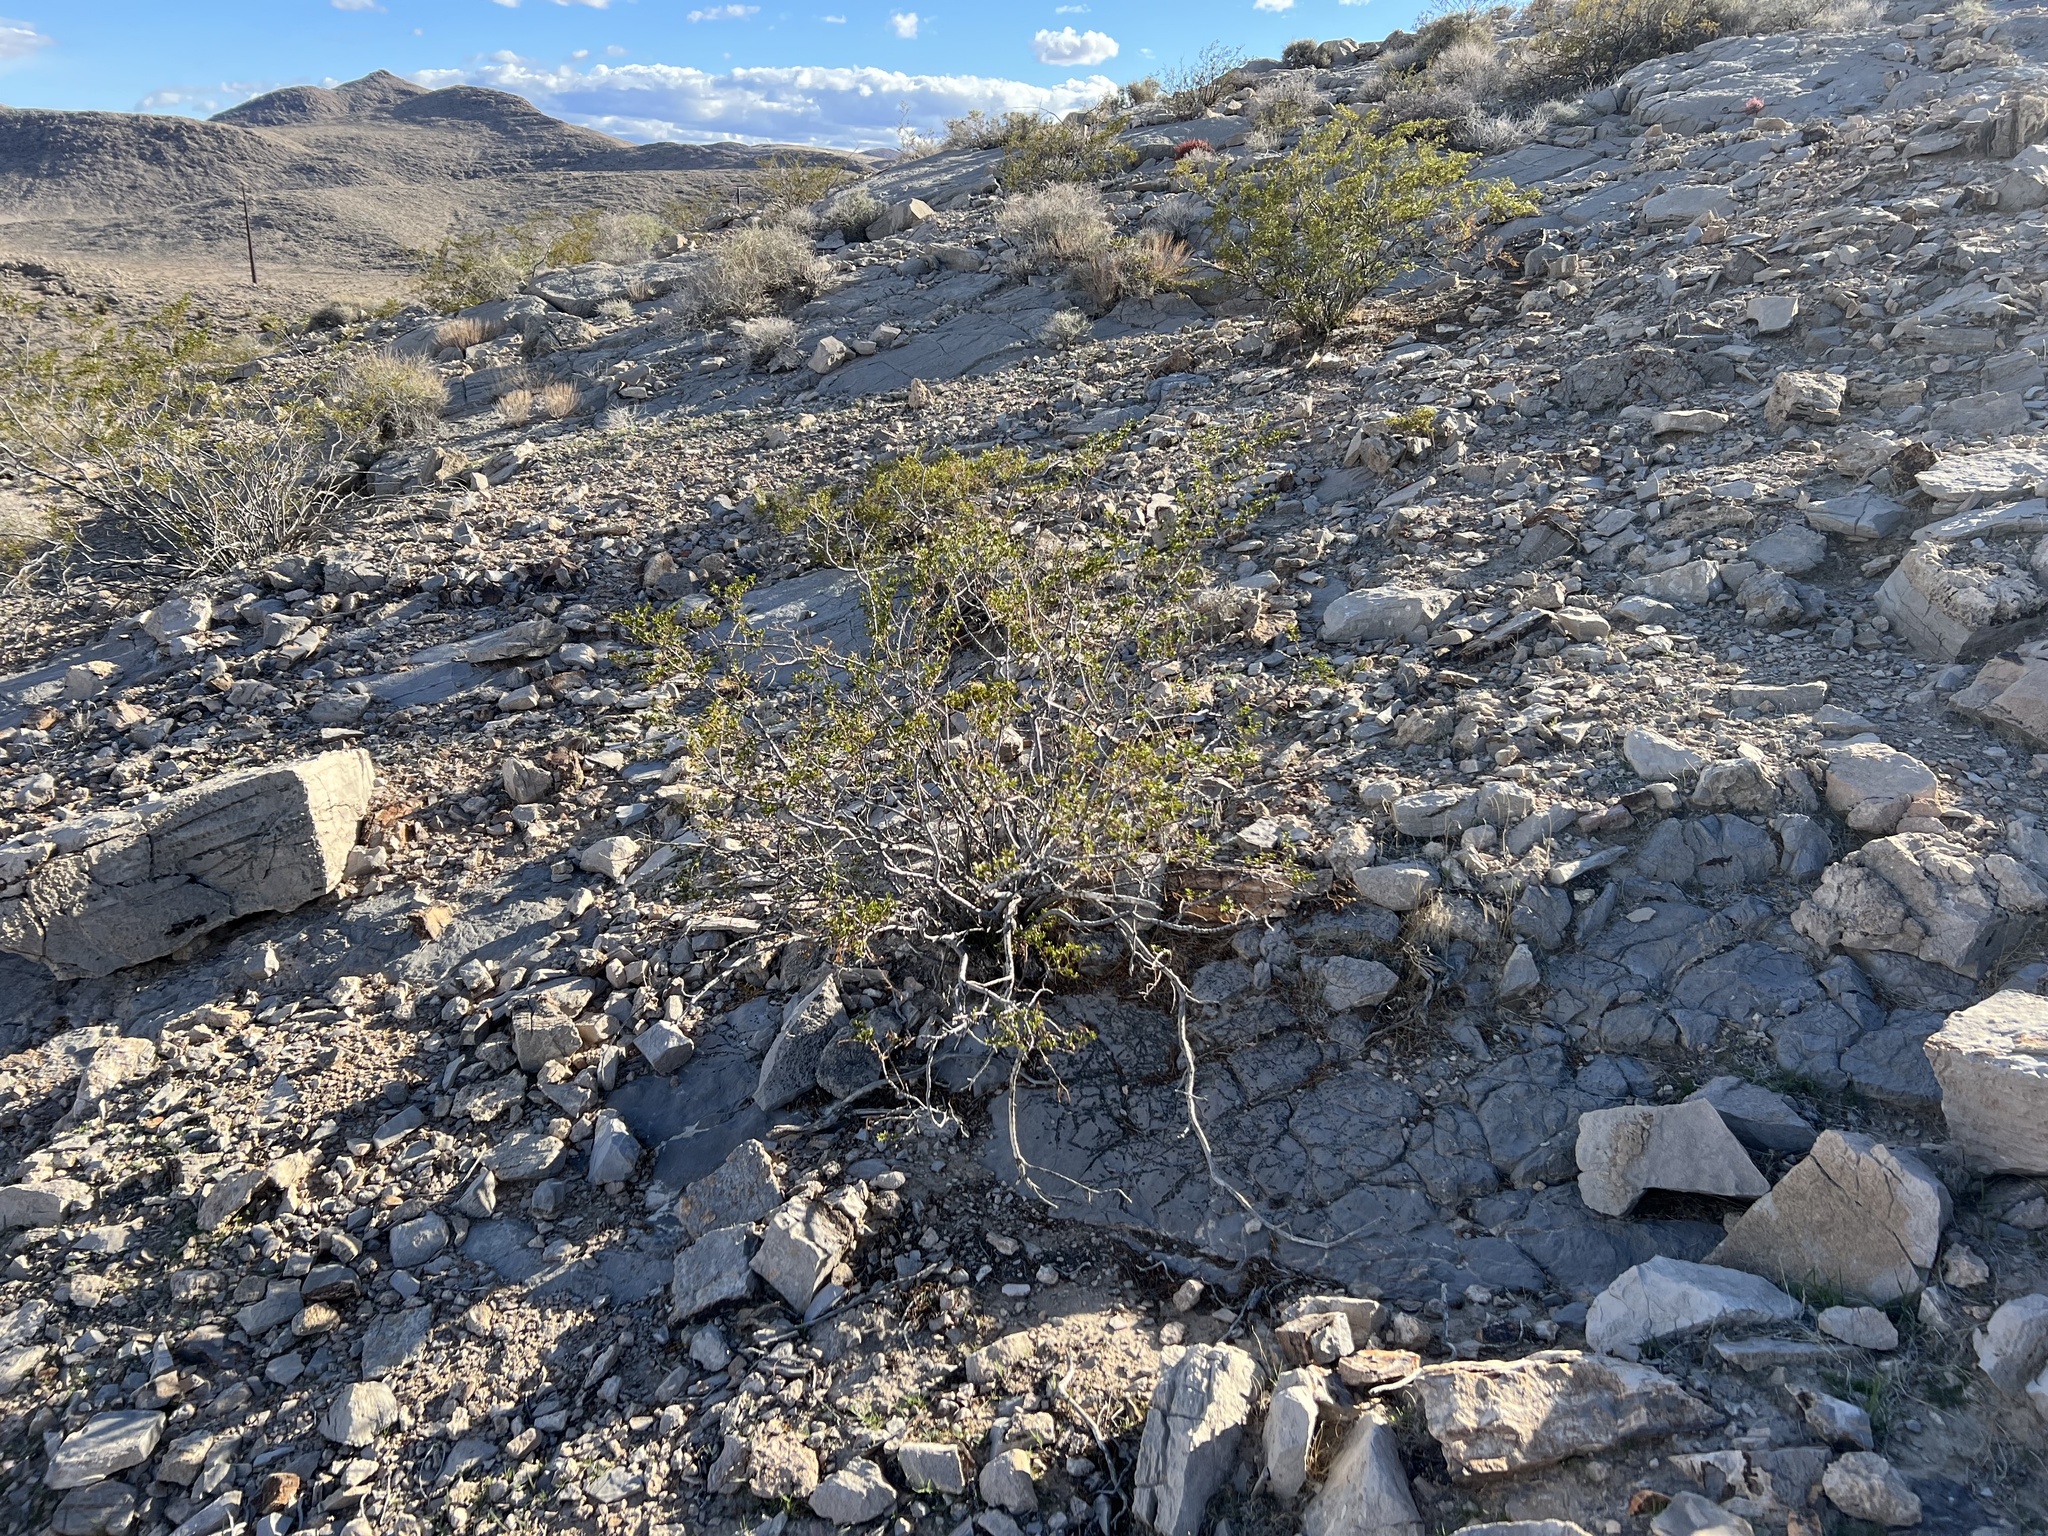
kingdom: Plantae
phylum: Tracheophyta
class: Magnoliopsida
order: Zygophyllales
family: Zygophyllaceae
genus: Larrea
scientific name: Larrea tridentata
